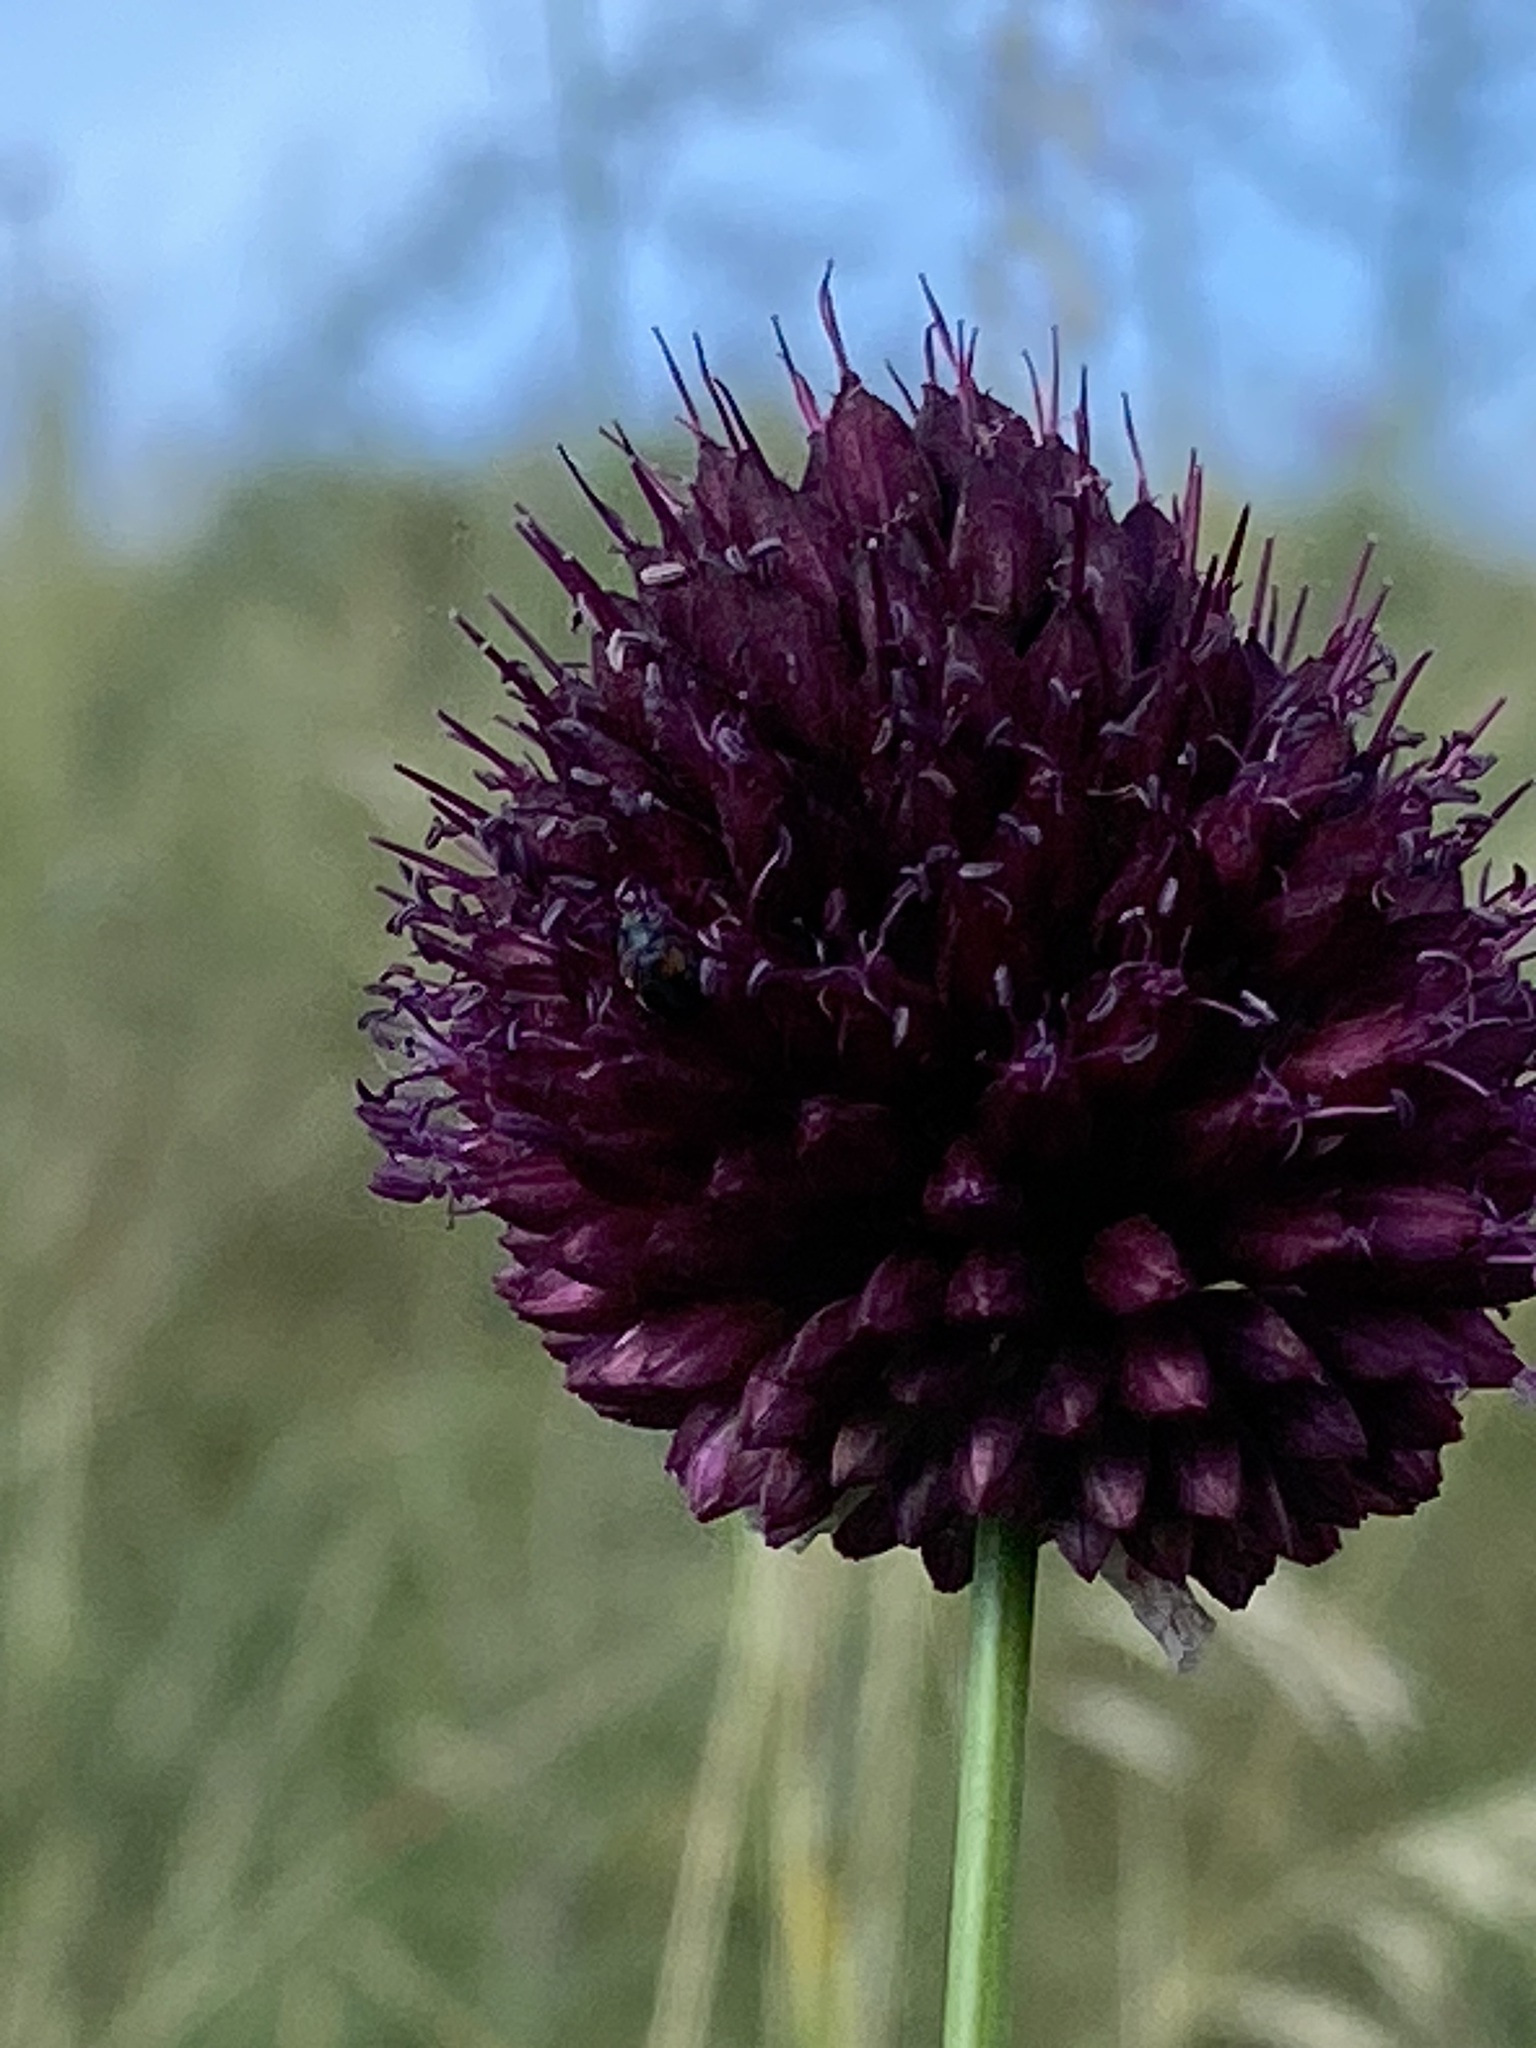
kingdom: Plantae
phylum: Tracheophyta
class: Liliopsida
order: Asparagales
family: Amaryllidaceae
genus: Allium
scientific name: Allium sphaerocephalon
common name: Round-headed leek
